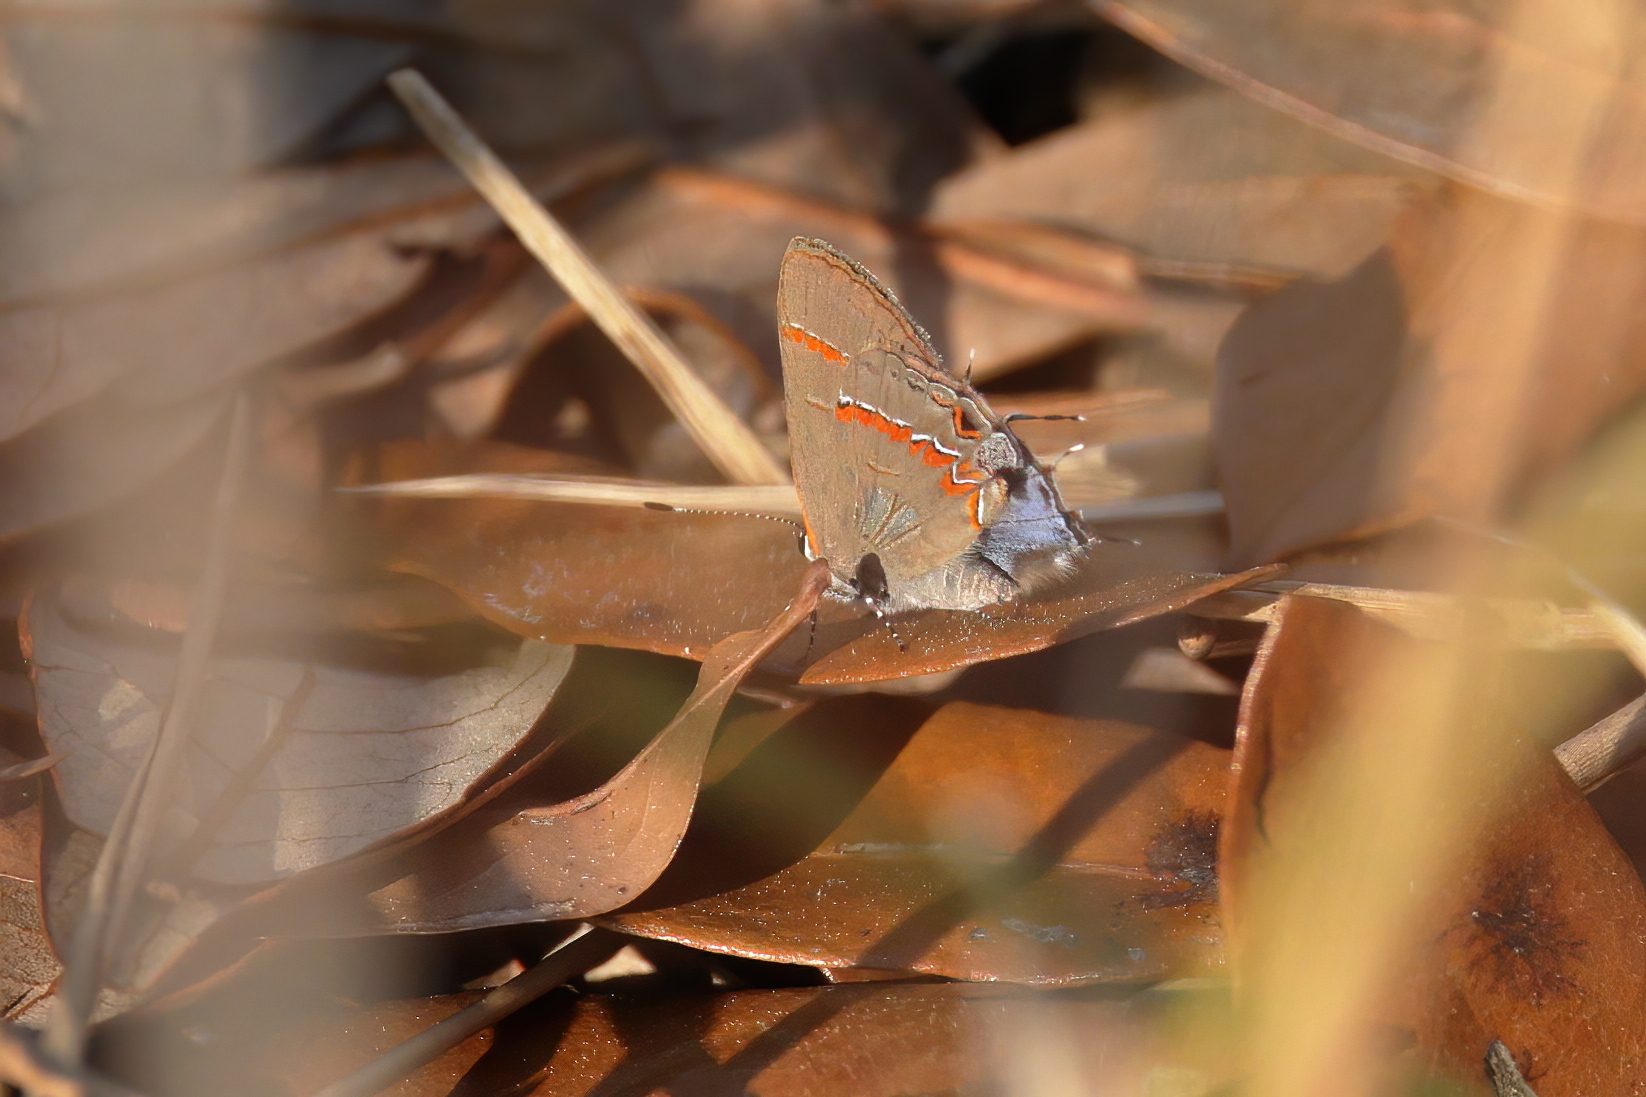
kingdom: Animalia
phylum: Arthropoda
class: Insecta
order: Lepidoptera
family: Lycaenidae
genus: Calycopis
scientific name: Calycopis cecrops
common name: Red-banded hairstreak
